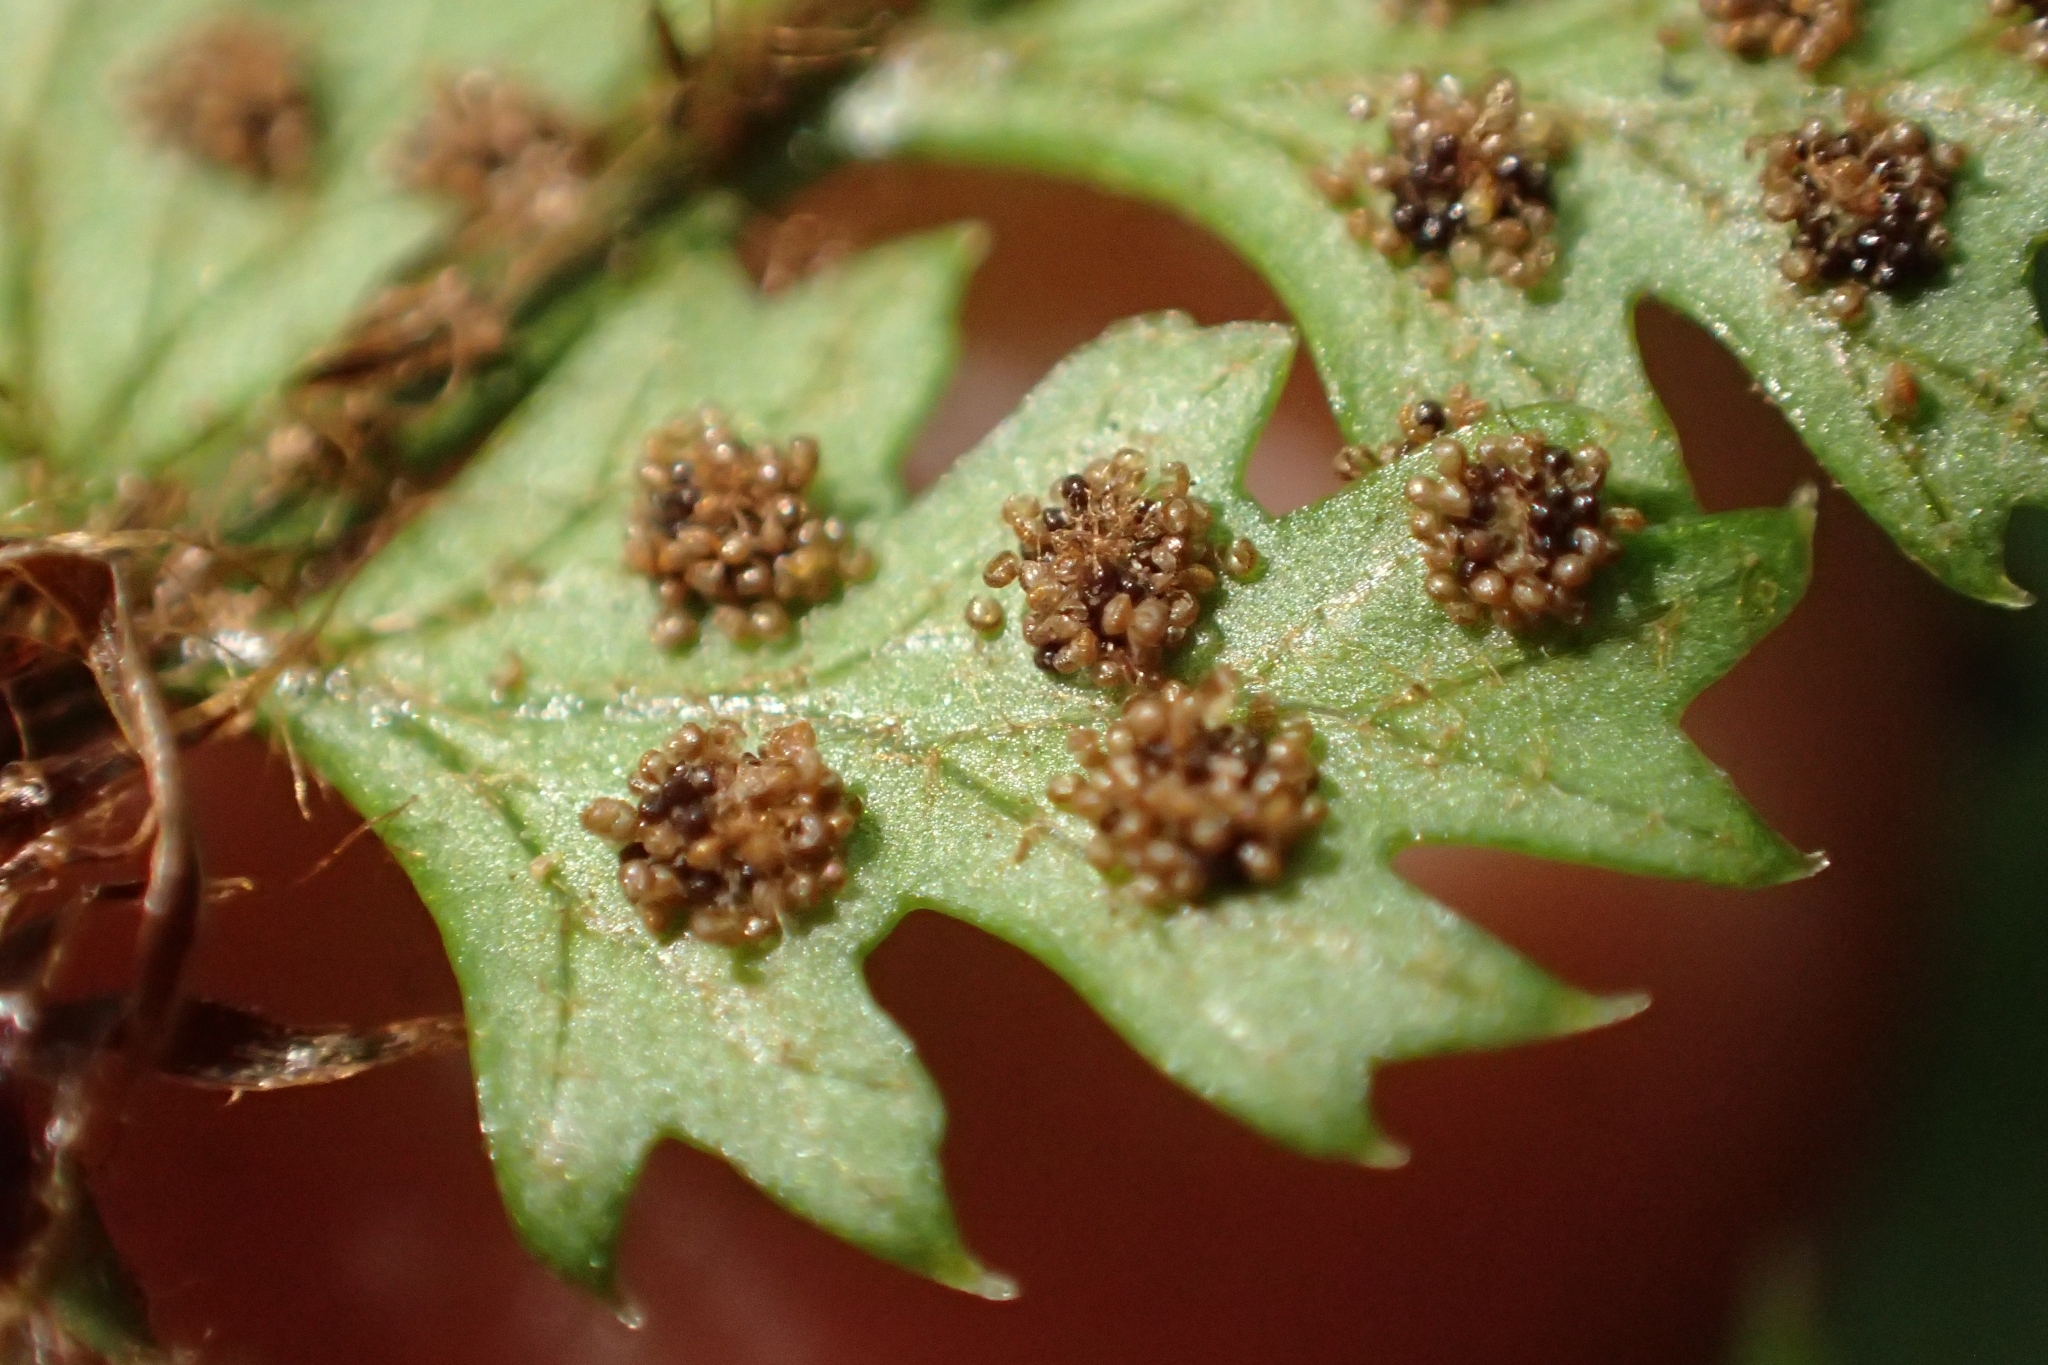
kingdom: Plantae
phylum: Tracheophyta
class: Polypodiopsida
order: Polypodiales
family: Dryopteridaceae
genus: Polystichum
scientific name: Polystichum silvaticum
